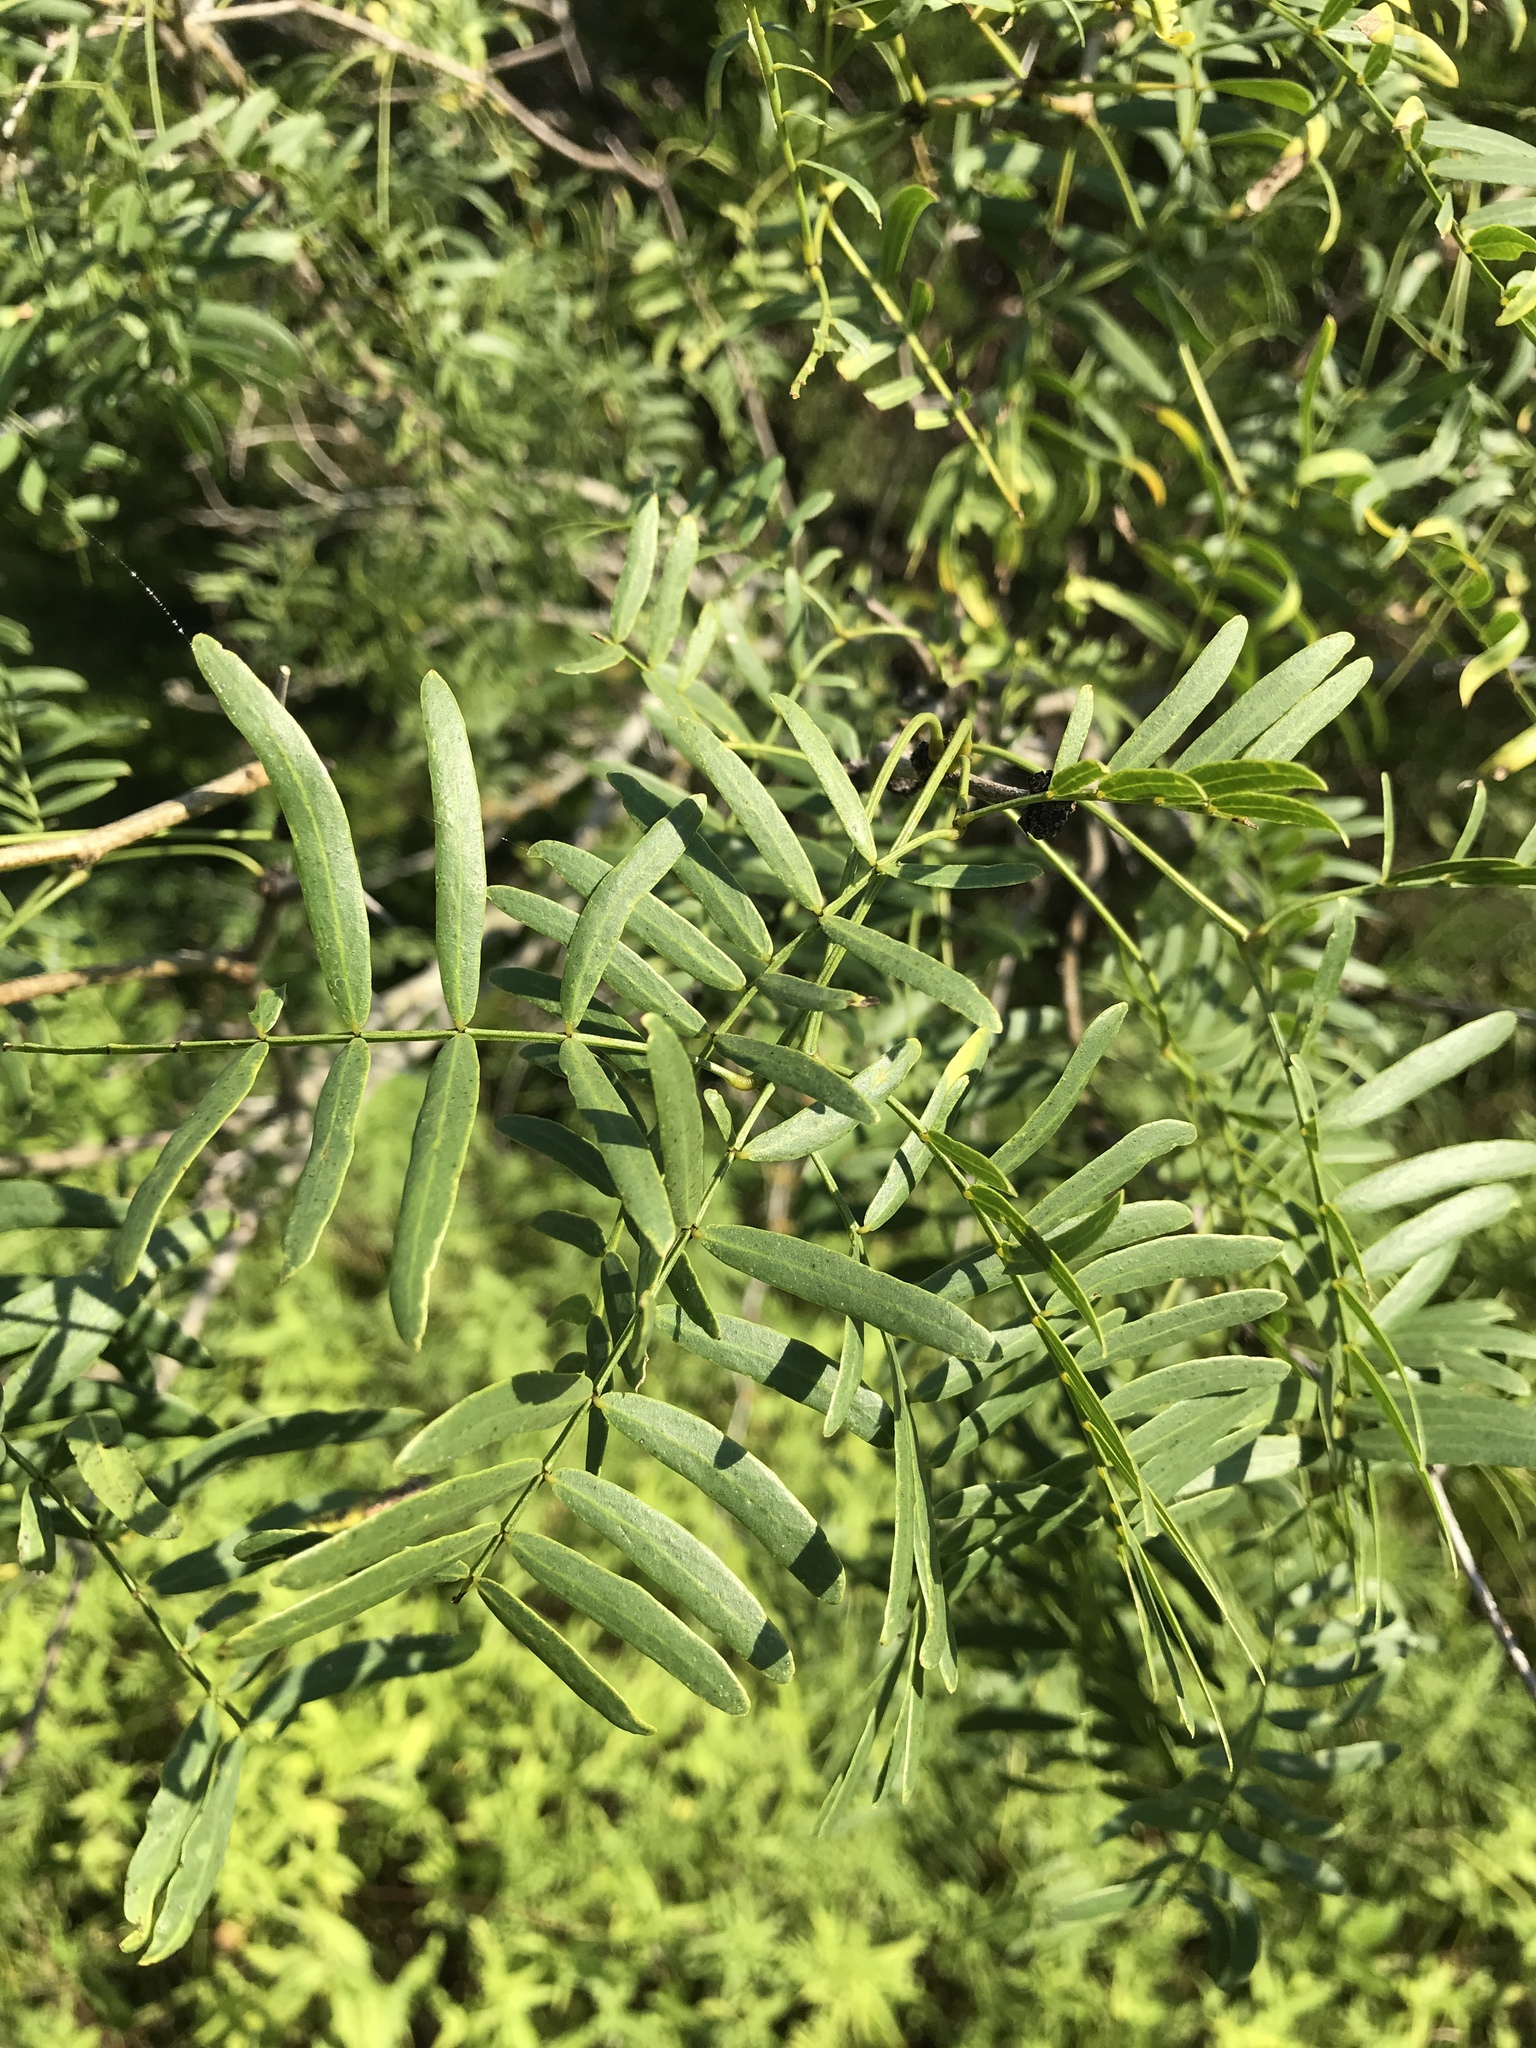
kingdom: Plantae
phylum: Tracheophyta
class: Magnoliopsida
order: Fabales
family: Fabaceae
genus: Prosopis
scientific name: Prosopis glandulosa
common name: Honey mesquite
